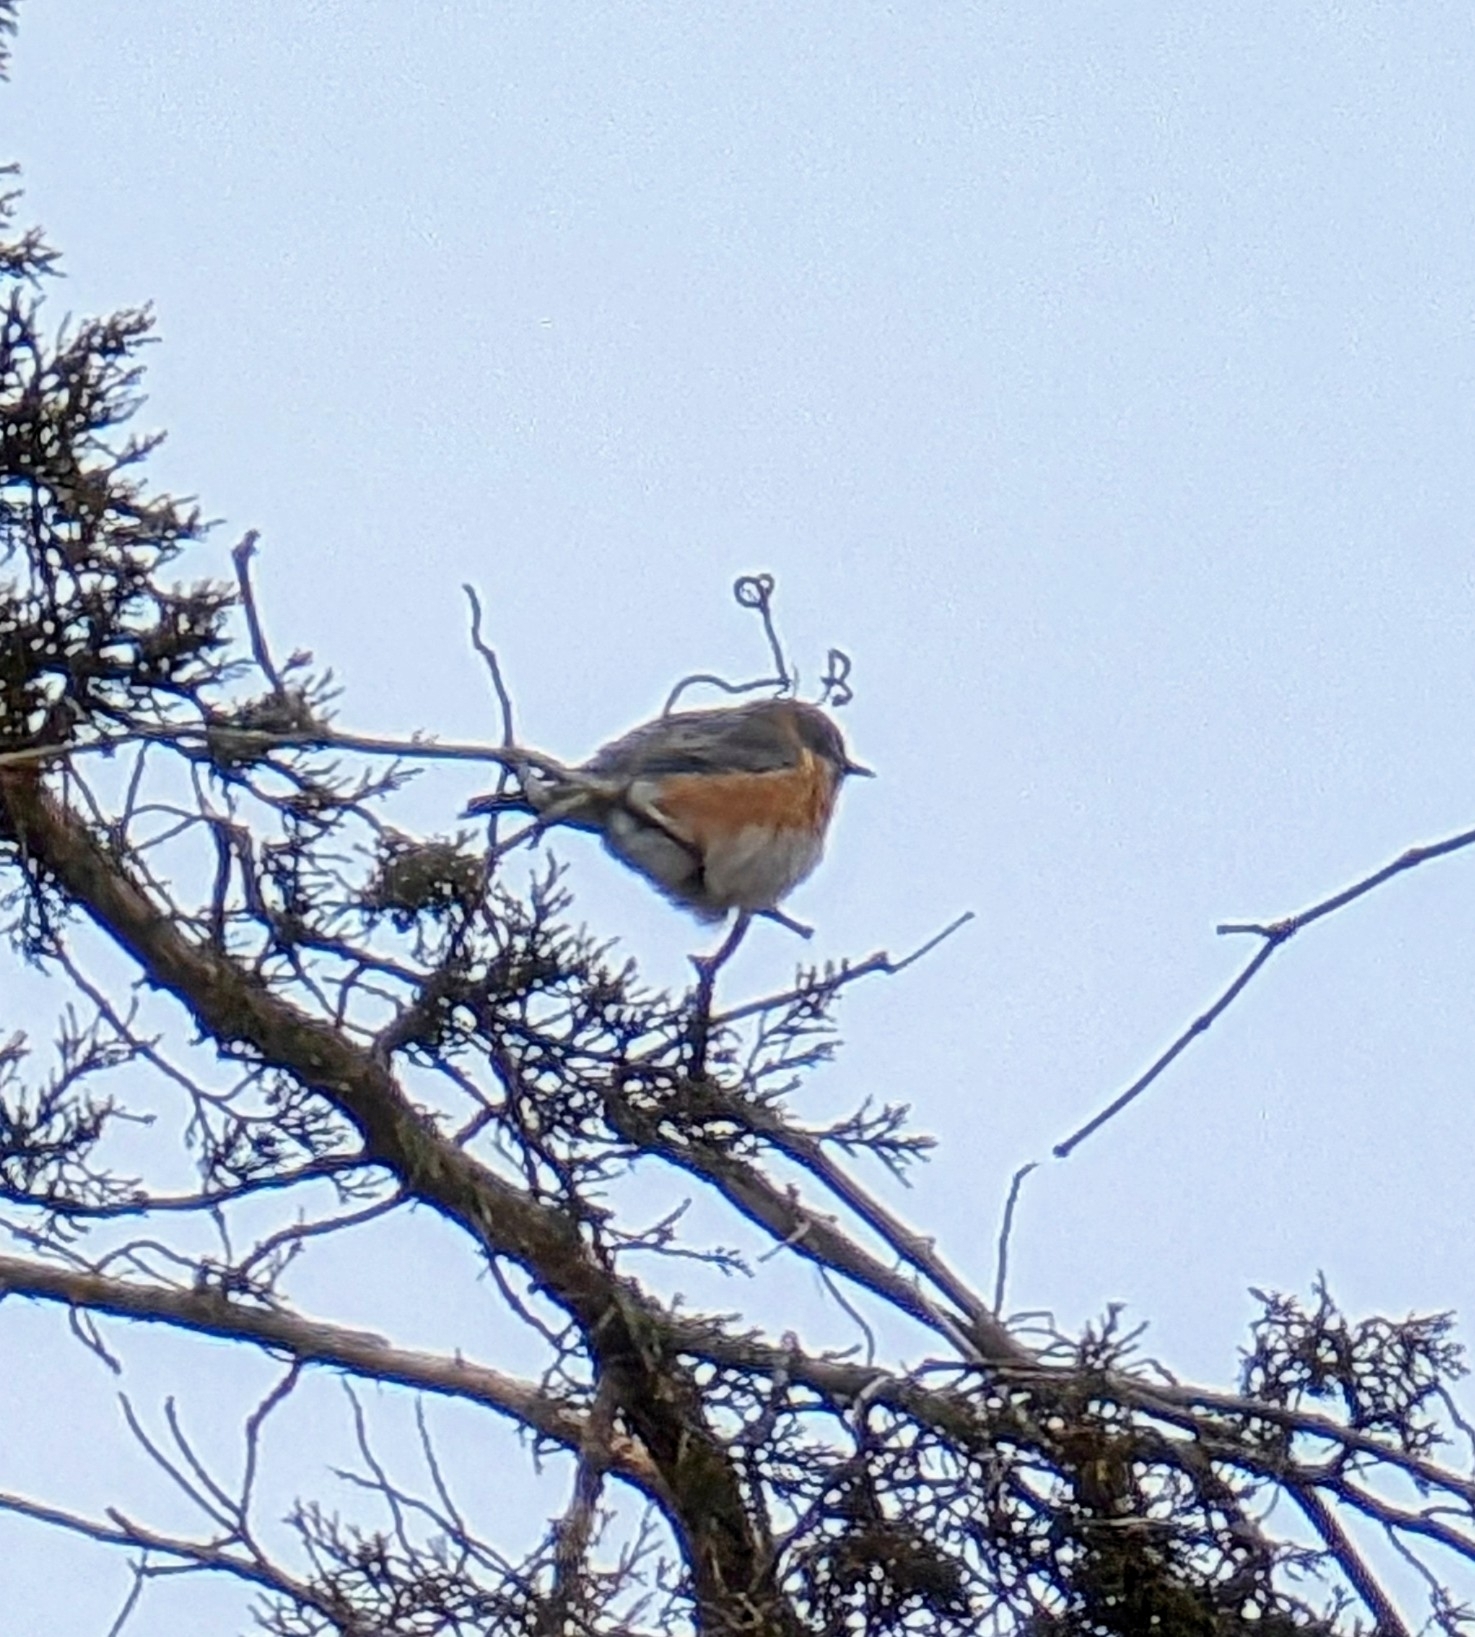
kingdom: Animalia
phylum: Chordata
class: Aves
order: Passeriformes
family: Turdidae
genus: Sialia
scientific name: Sialia sialis
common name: Eastern bluebird
